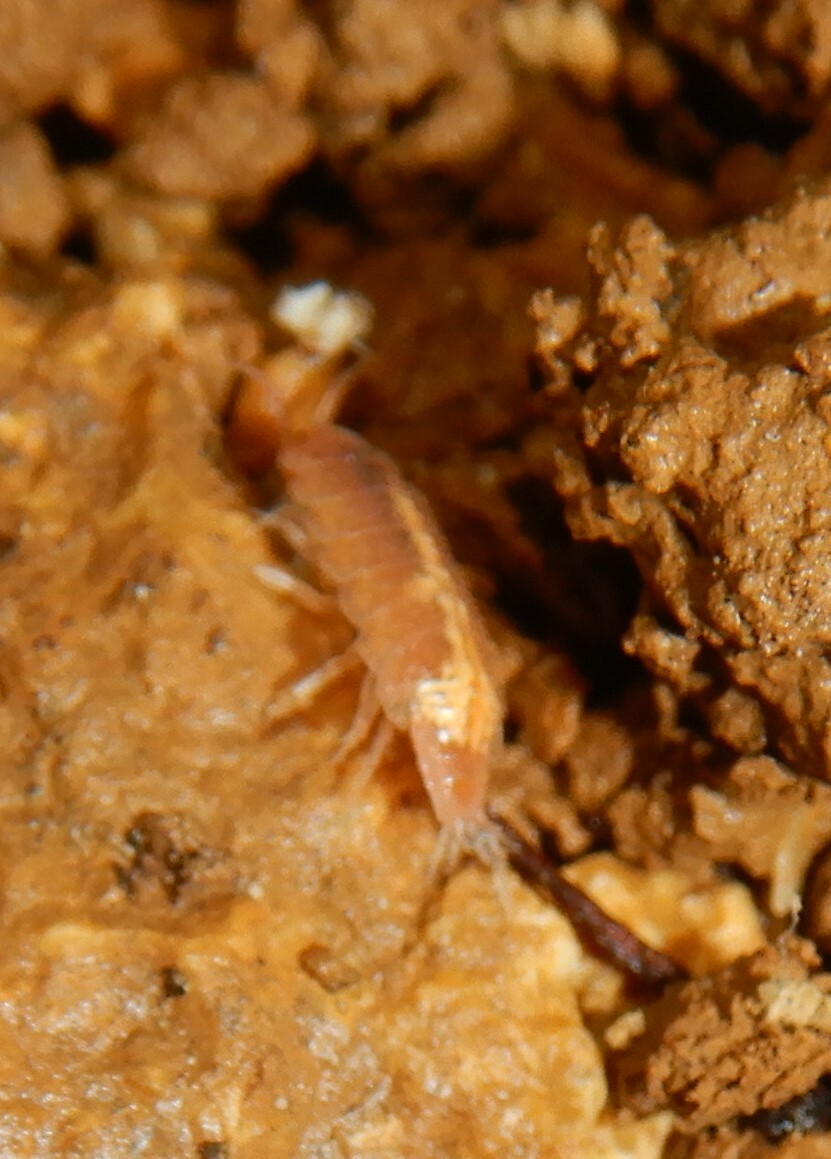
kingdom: Animalia
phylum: Arthropoda
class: Malacostraca
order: Isopoda
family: Trichoniscidae
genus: Androniscus
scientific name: Androniscus dentiger
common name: Rosy woodlouse
